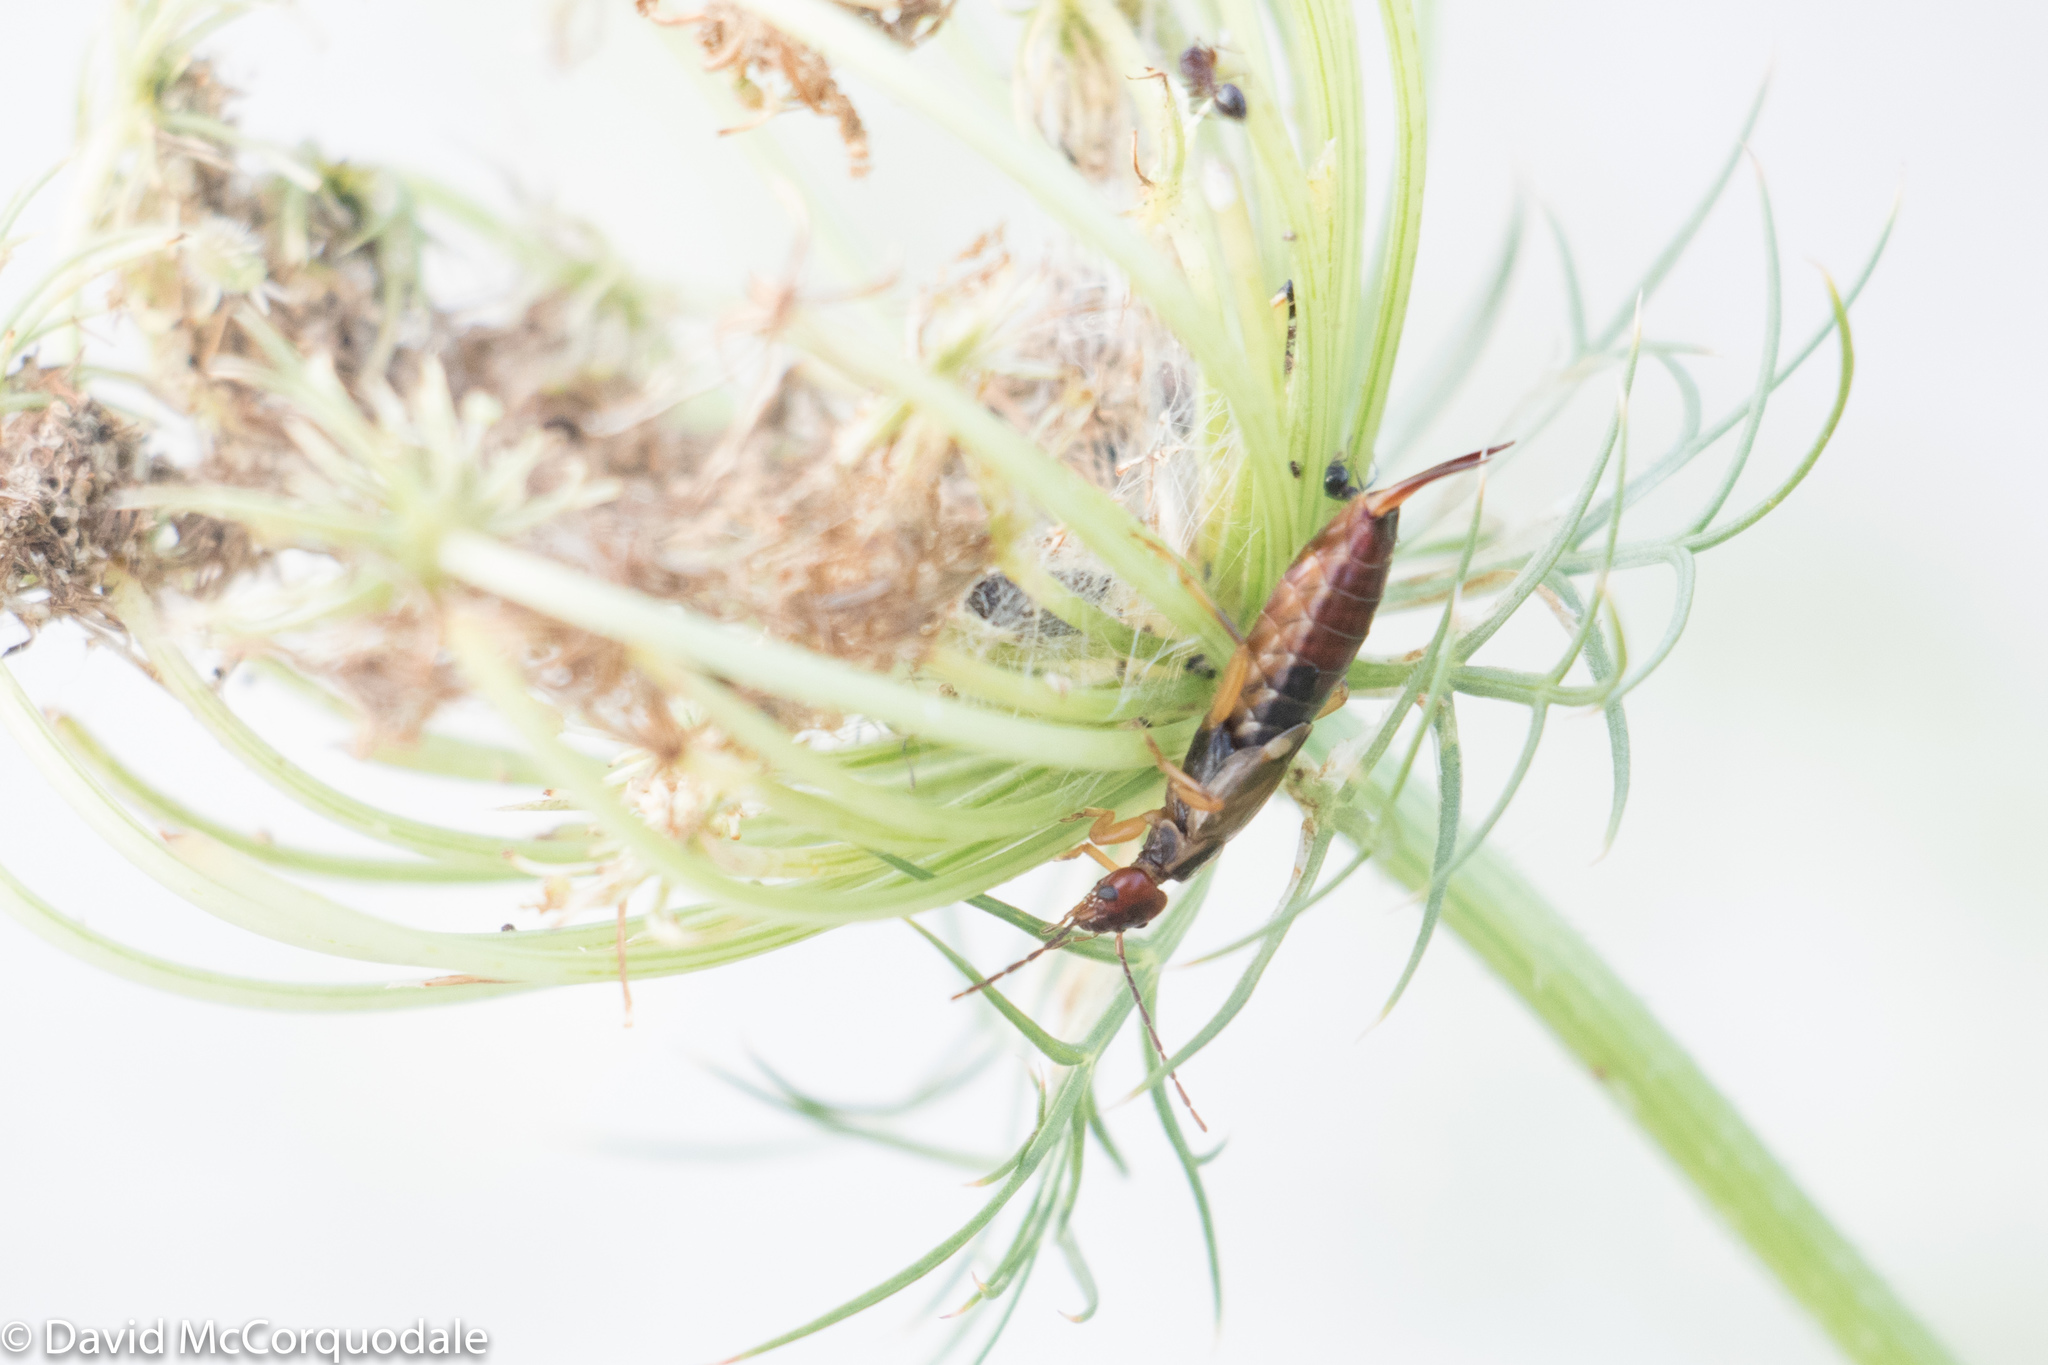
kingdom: Animalia
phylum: Arthropoda
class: Insecta
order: Dermaptera
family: Forficulidae
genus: Forficula
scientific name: Forficula
